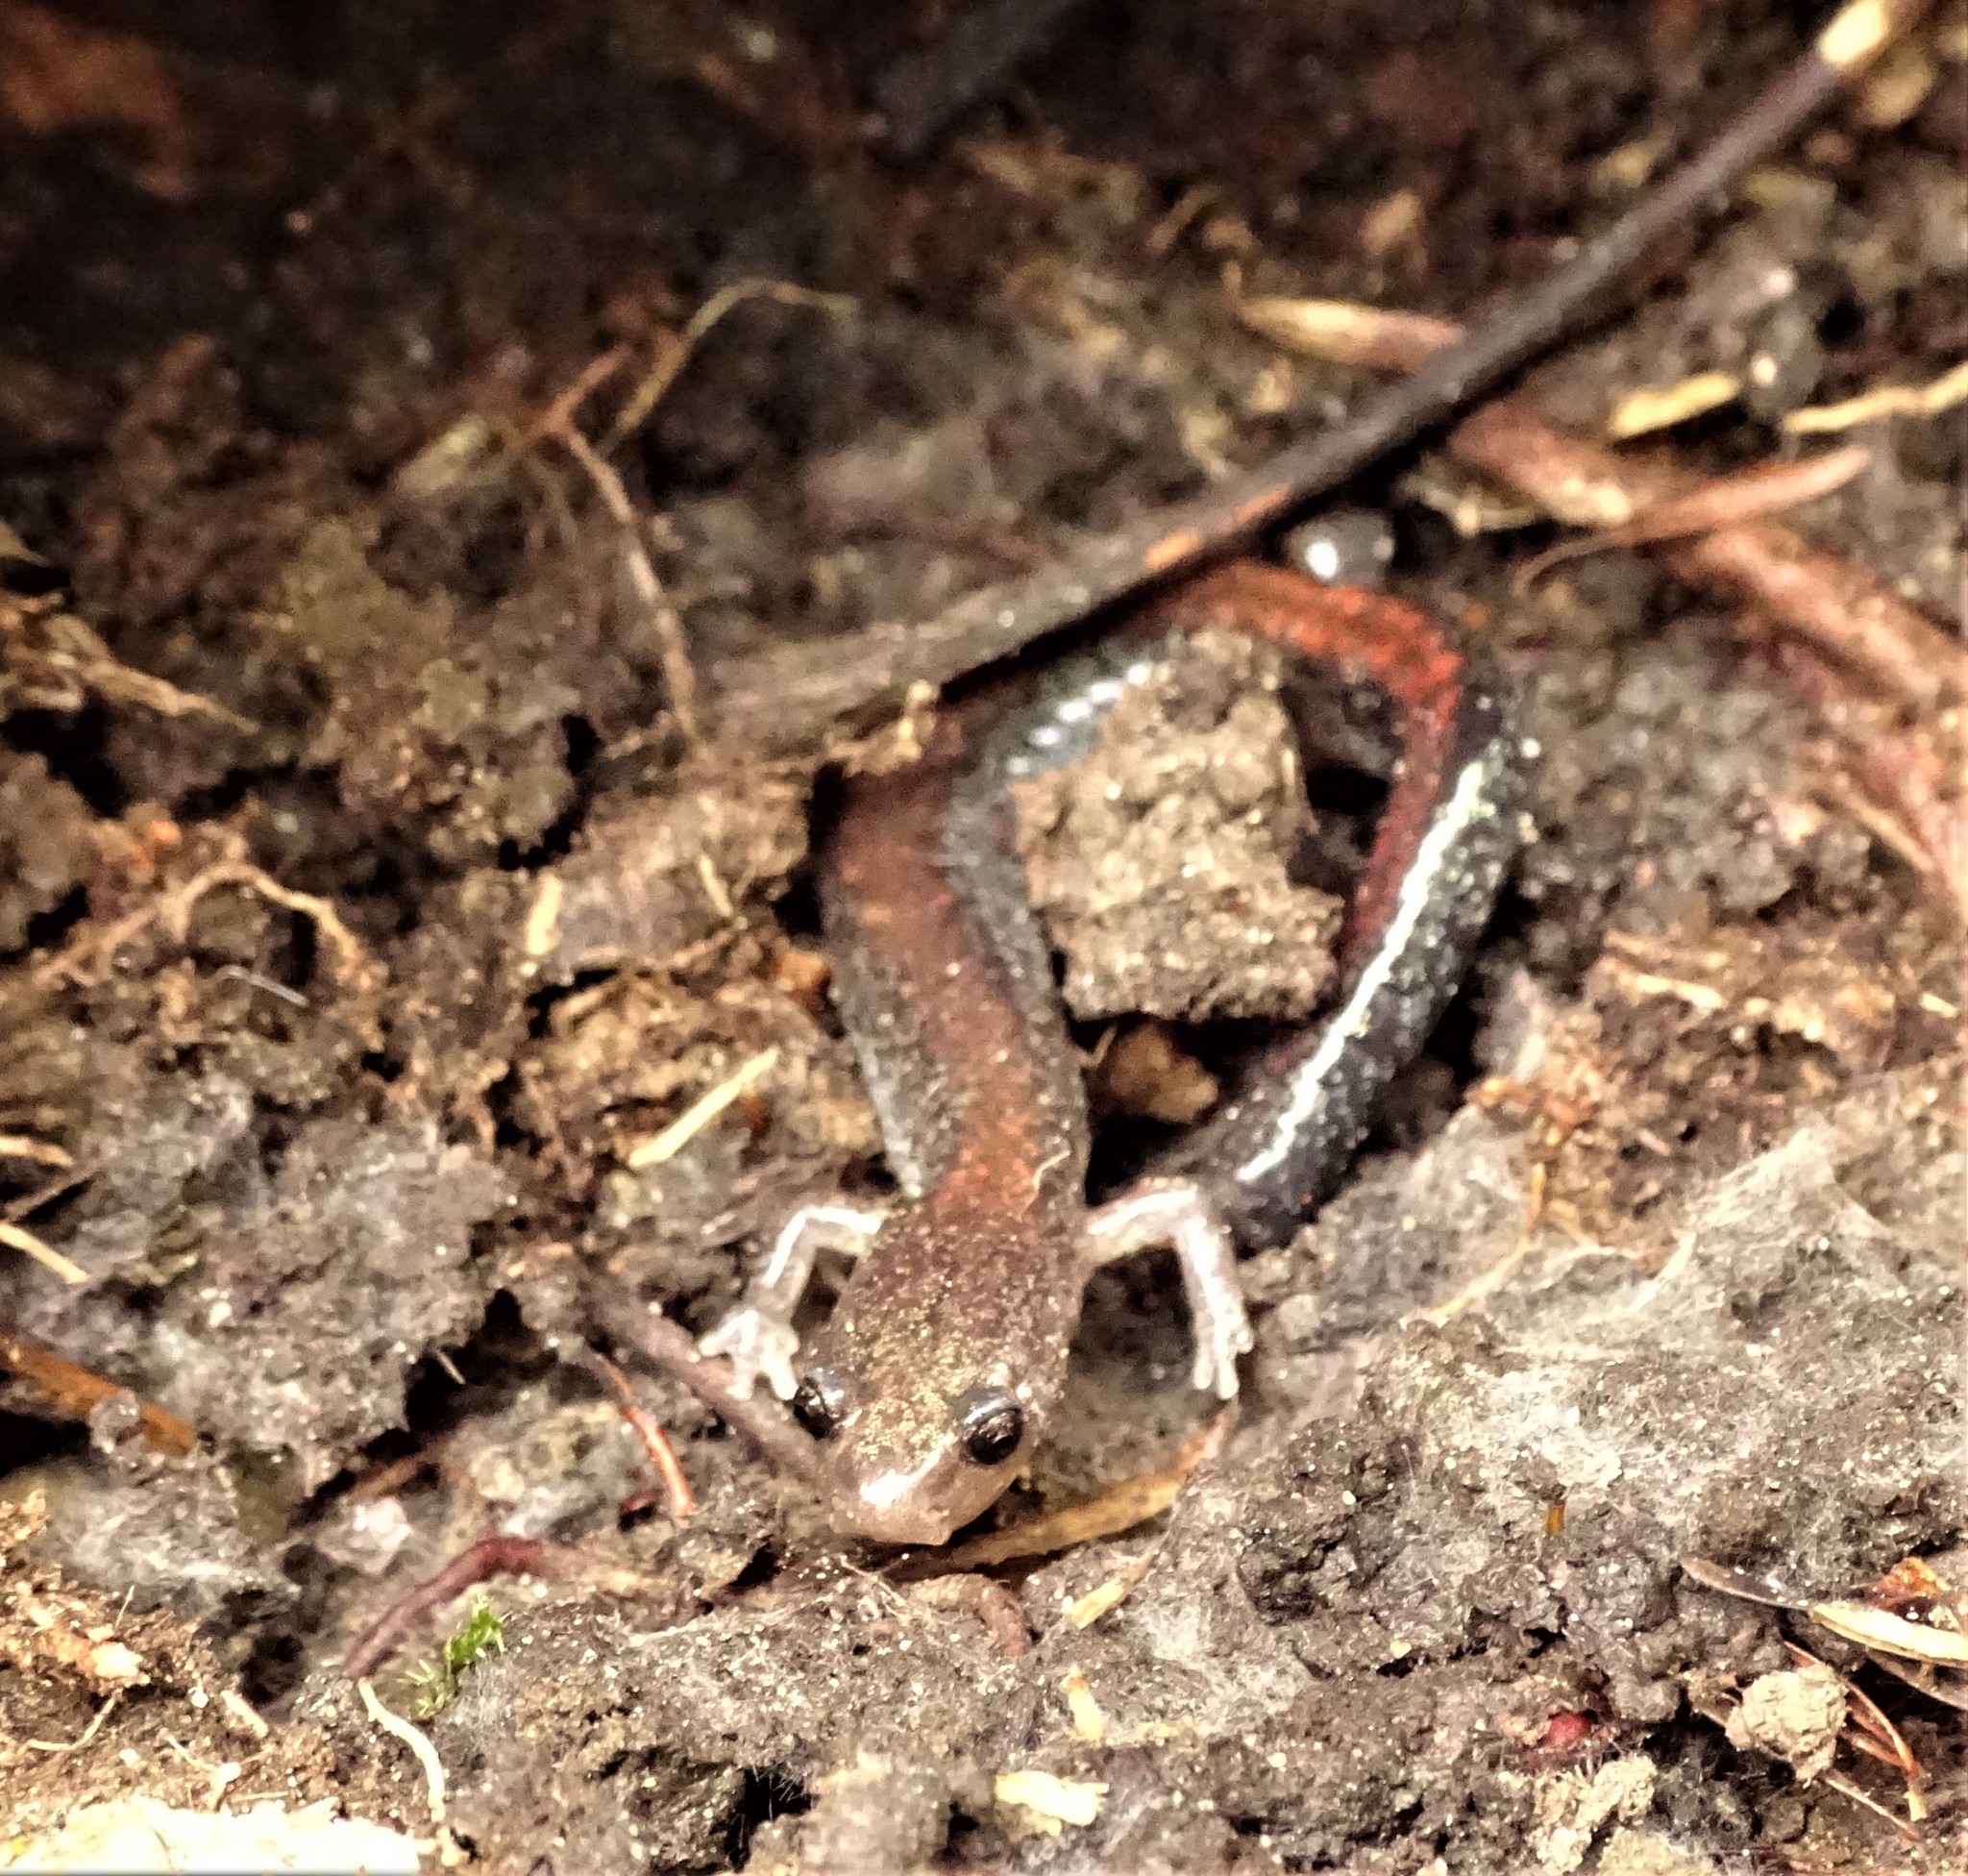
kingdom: Animalia
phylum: Chordata
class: Amphibia
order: Caudata
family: Plethodontidae
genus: Plethodon
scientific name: Plethodon cinereus
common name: Redback salamander
